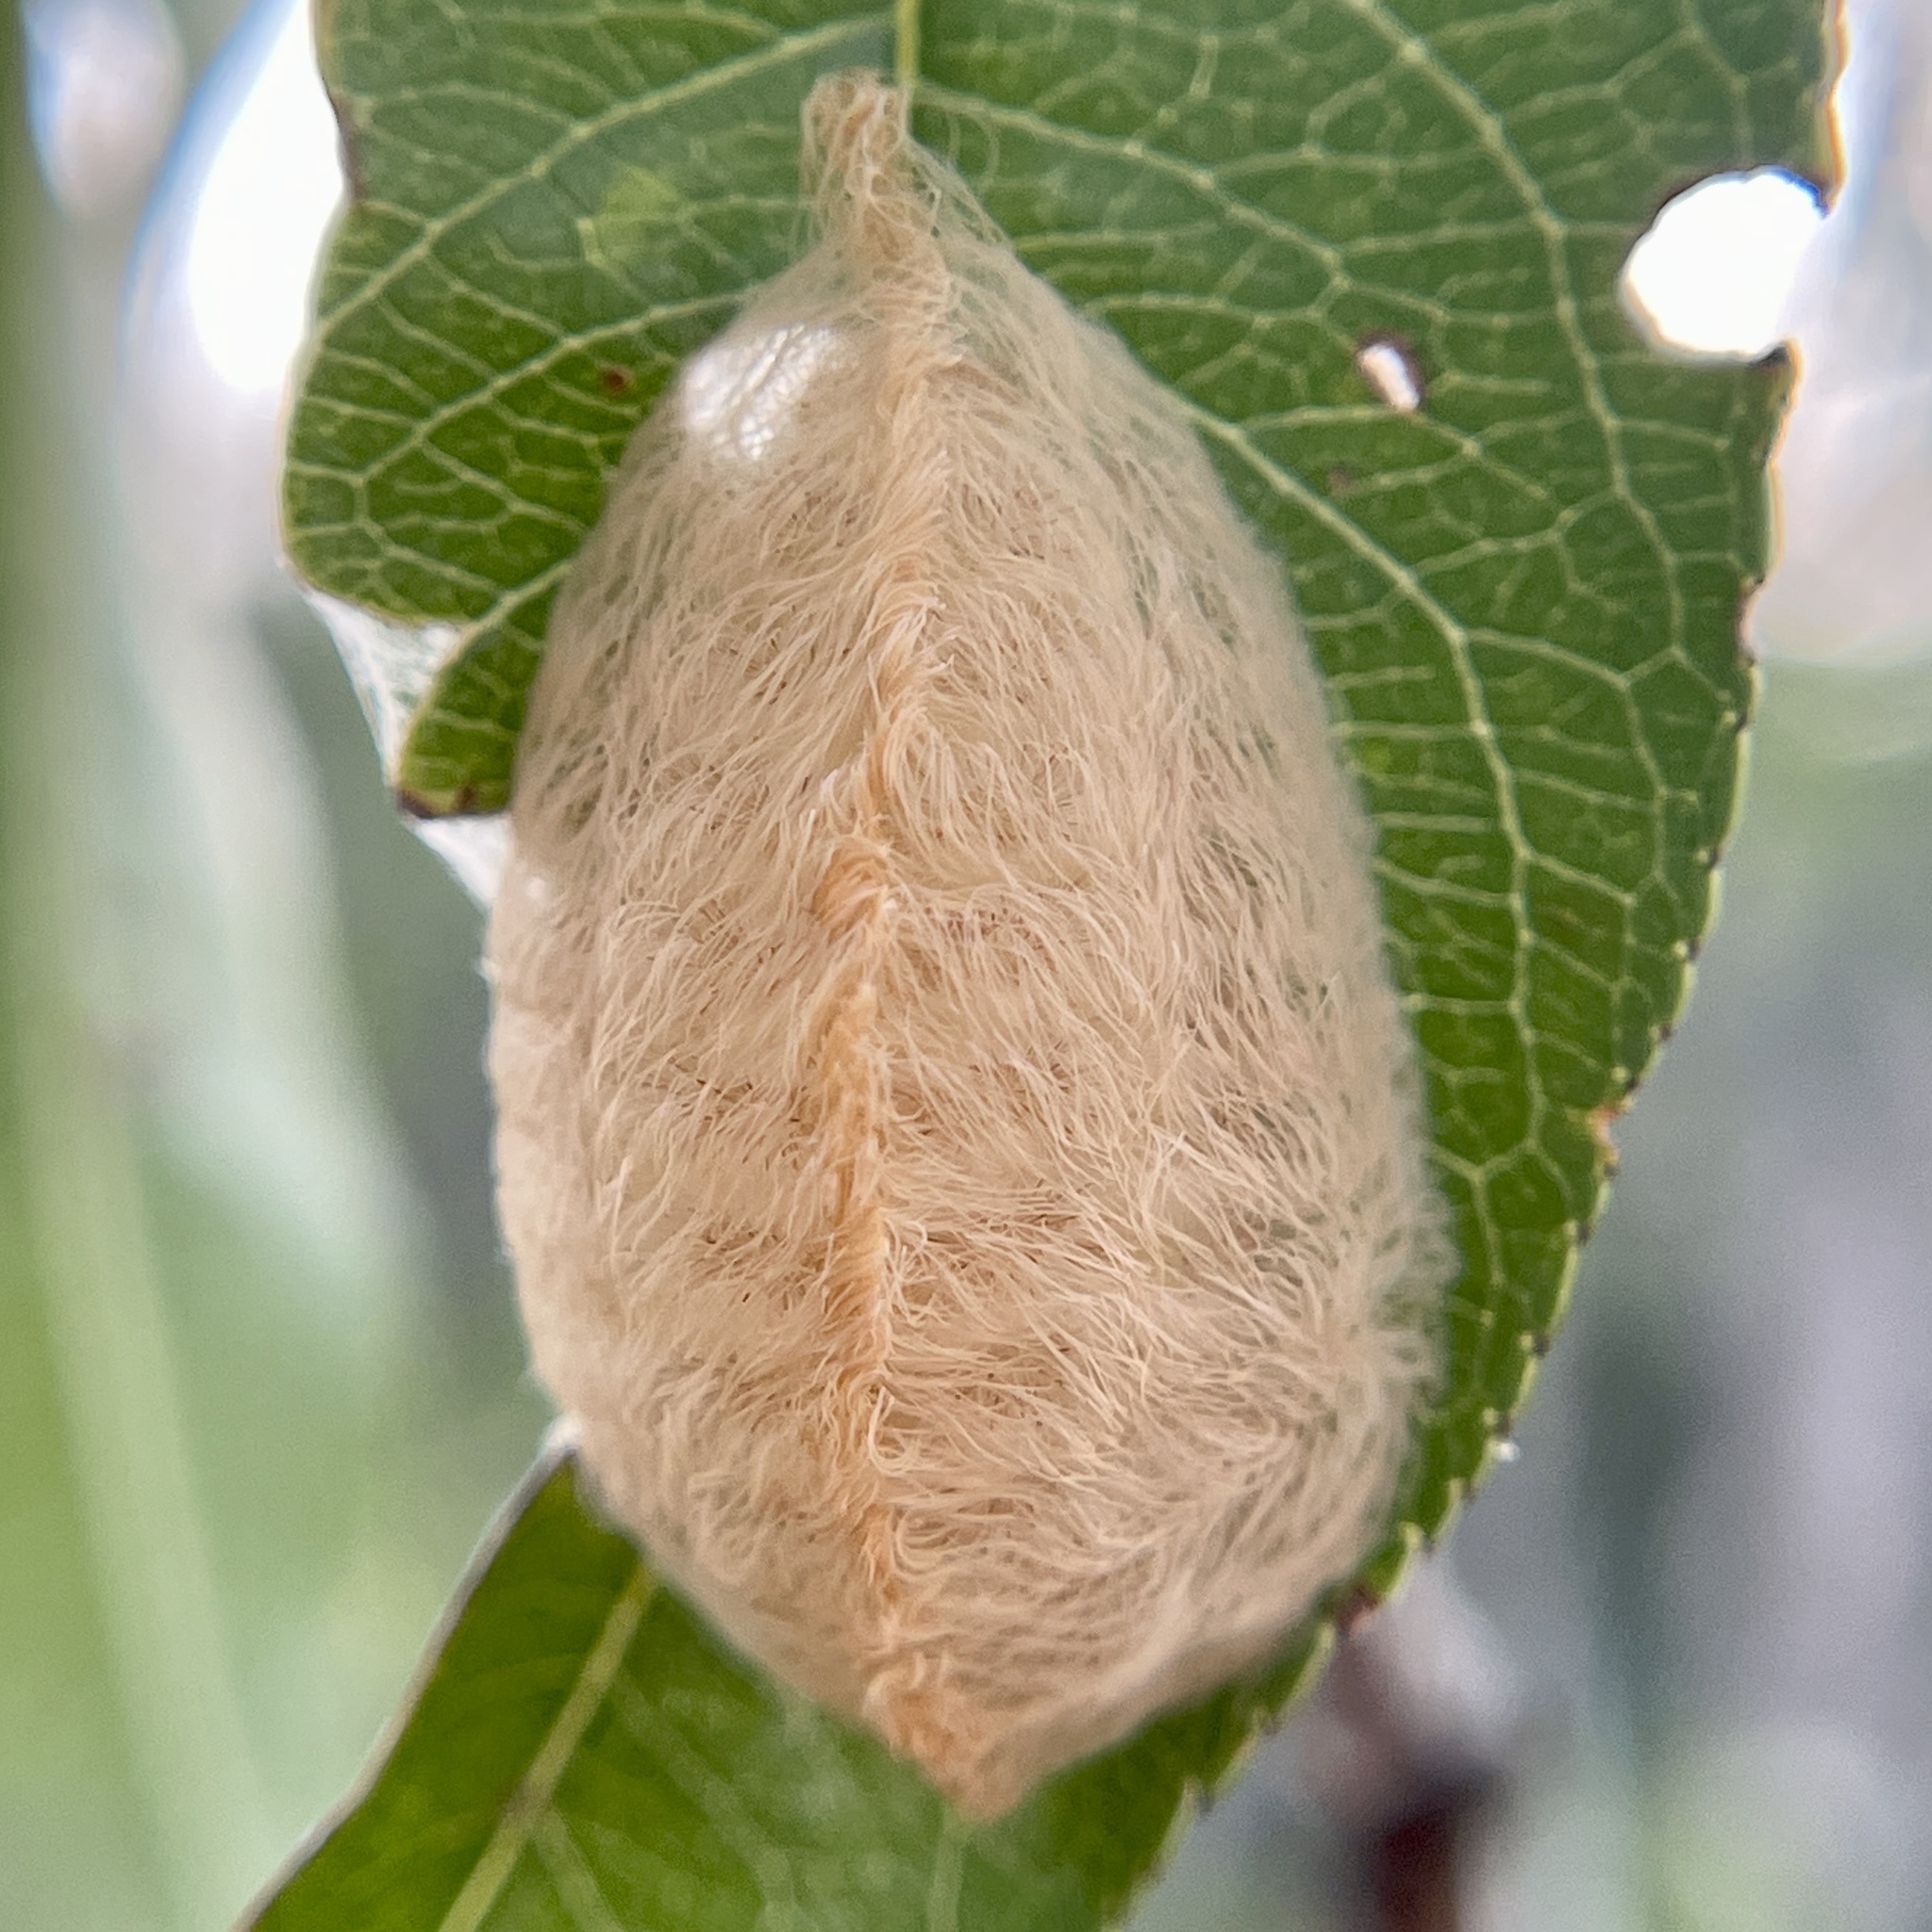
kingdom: Animalia
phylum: Arthropoda
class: Insecta
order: Lepidoptera
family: Megalopygidae
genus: Megalopyge
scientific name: Megalopyge opercularis
